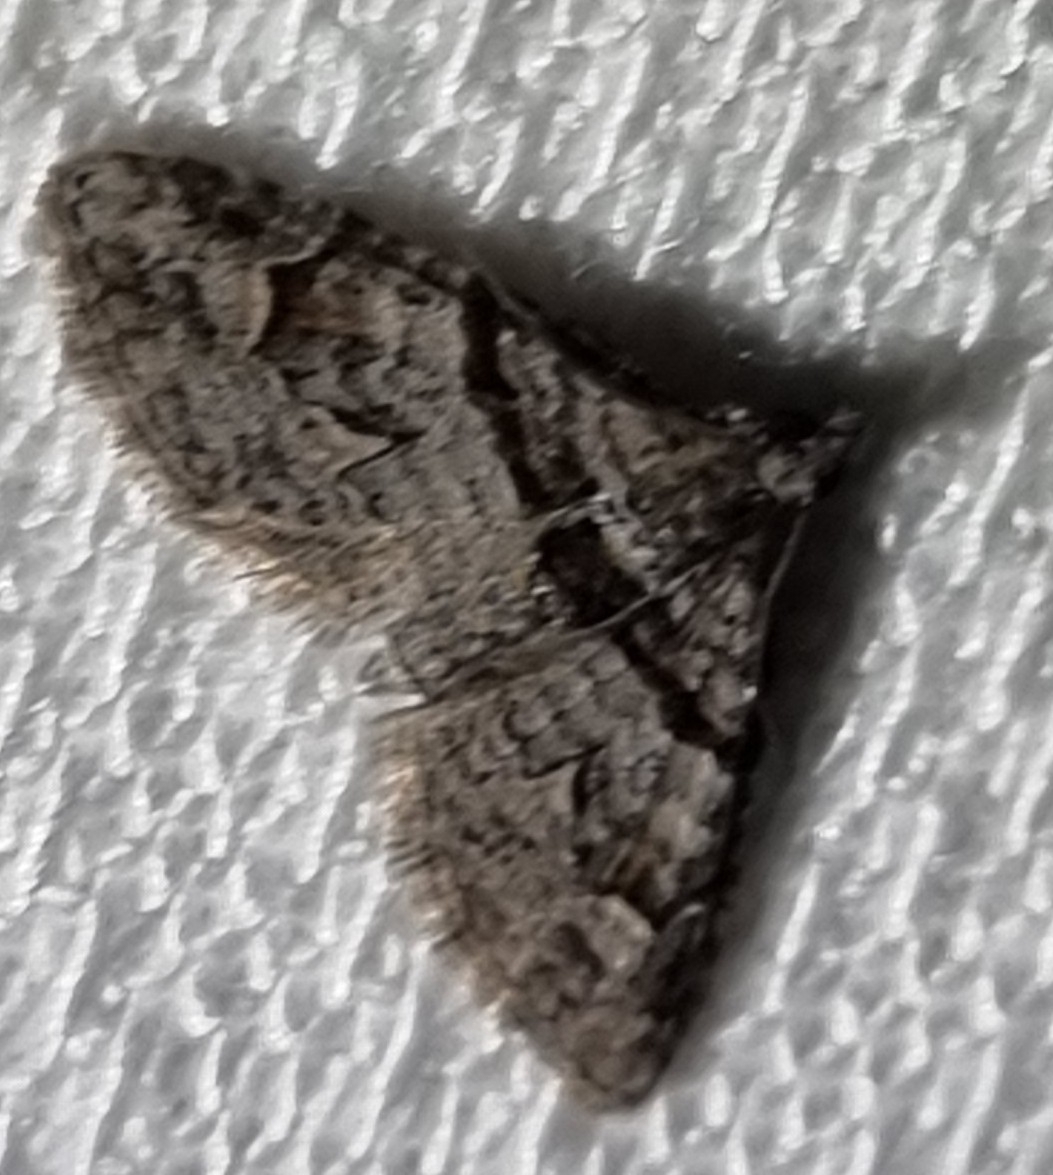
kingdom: Animalia
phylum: Arthropoda
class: Insecta
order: Lepidoptera
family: Geometridae
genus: Phrissogonus
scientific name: Phrissogonus laticostata
